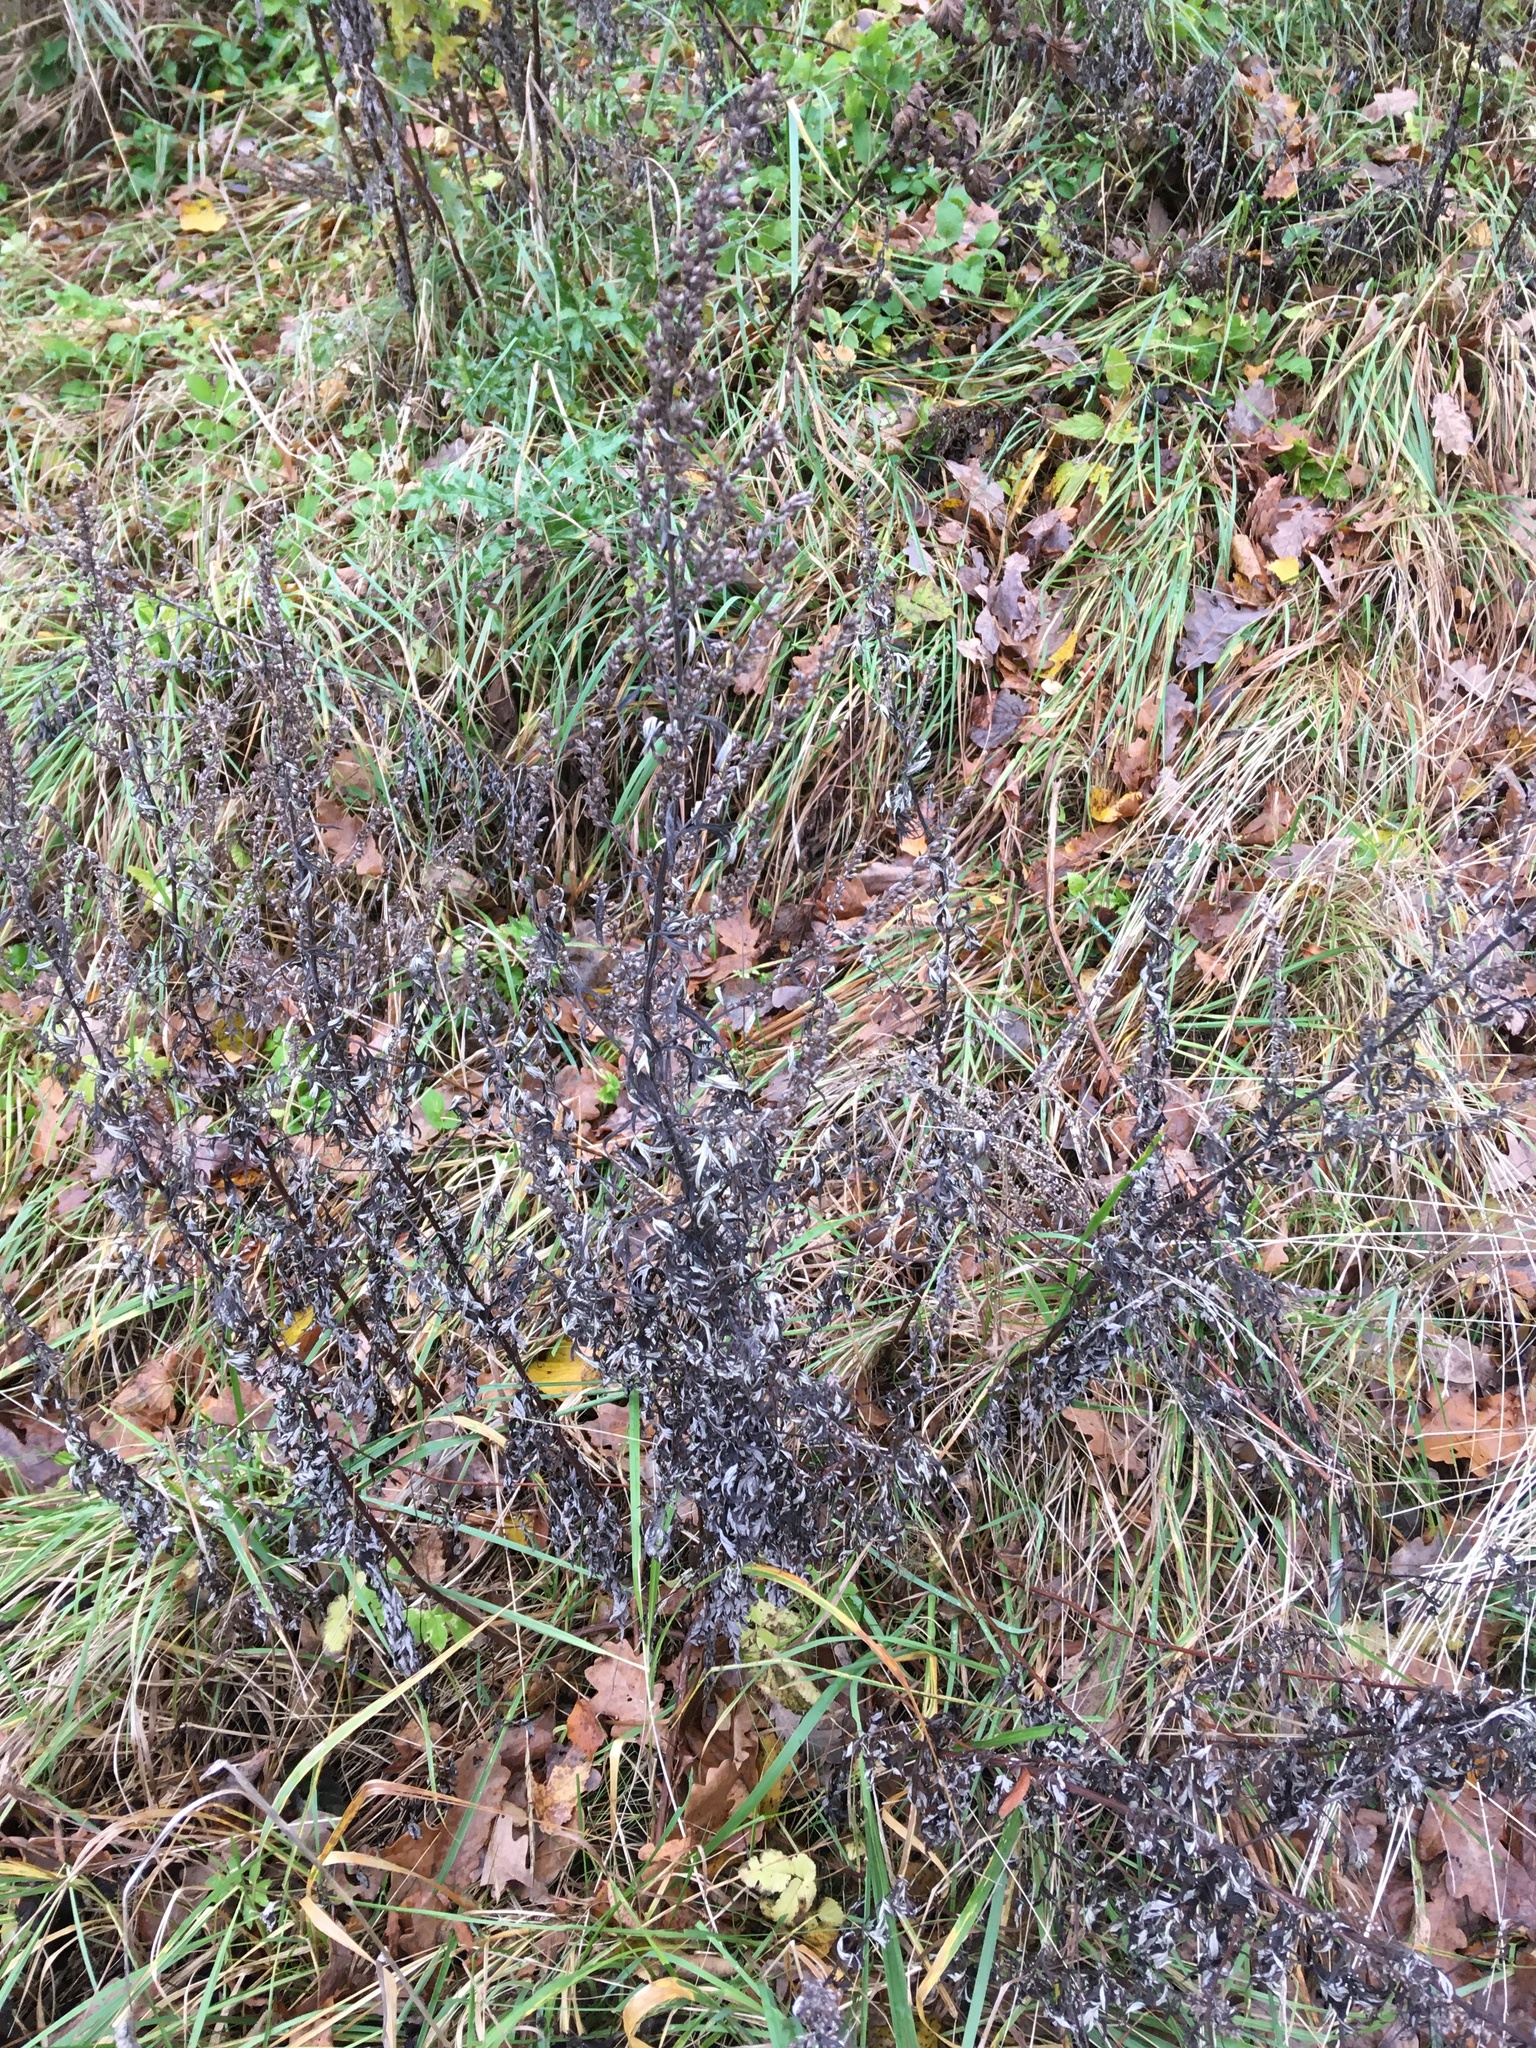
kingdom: Plantae
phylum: Tracheophyta
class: Magnoliopsida
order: Asterales
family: Asteraceae
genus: Artemisia
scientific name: Artemisia vulgaris
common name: Mugwort
